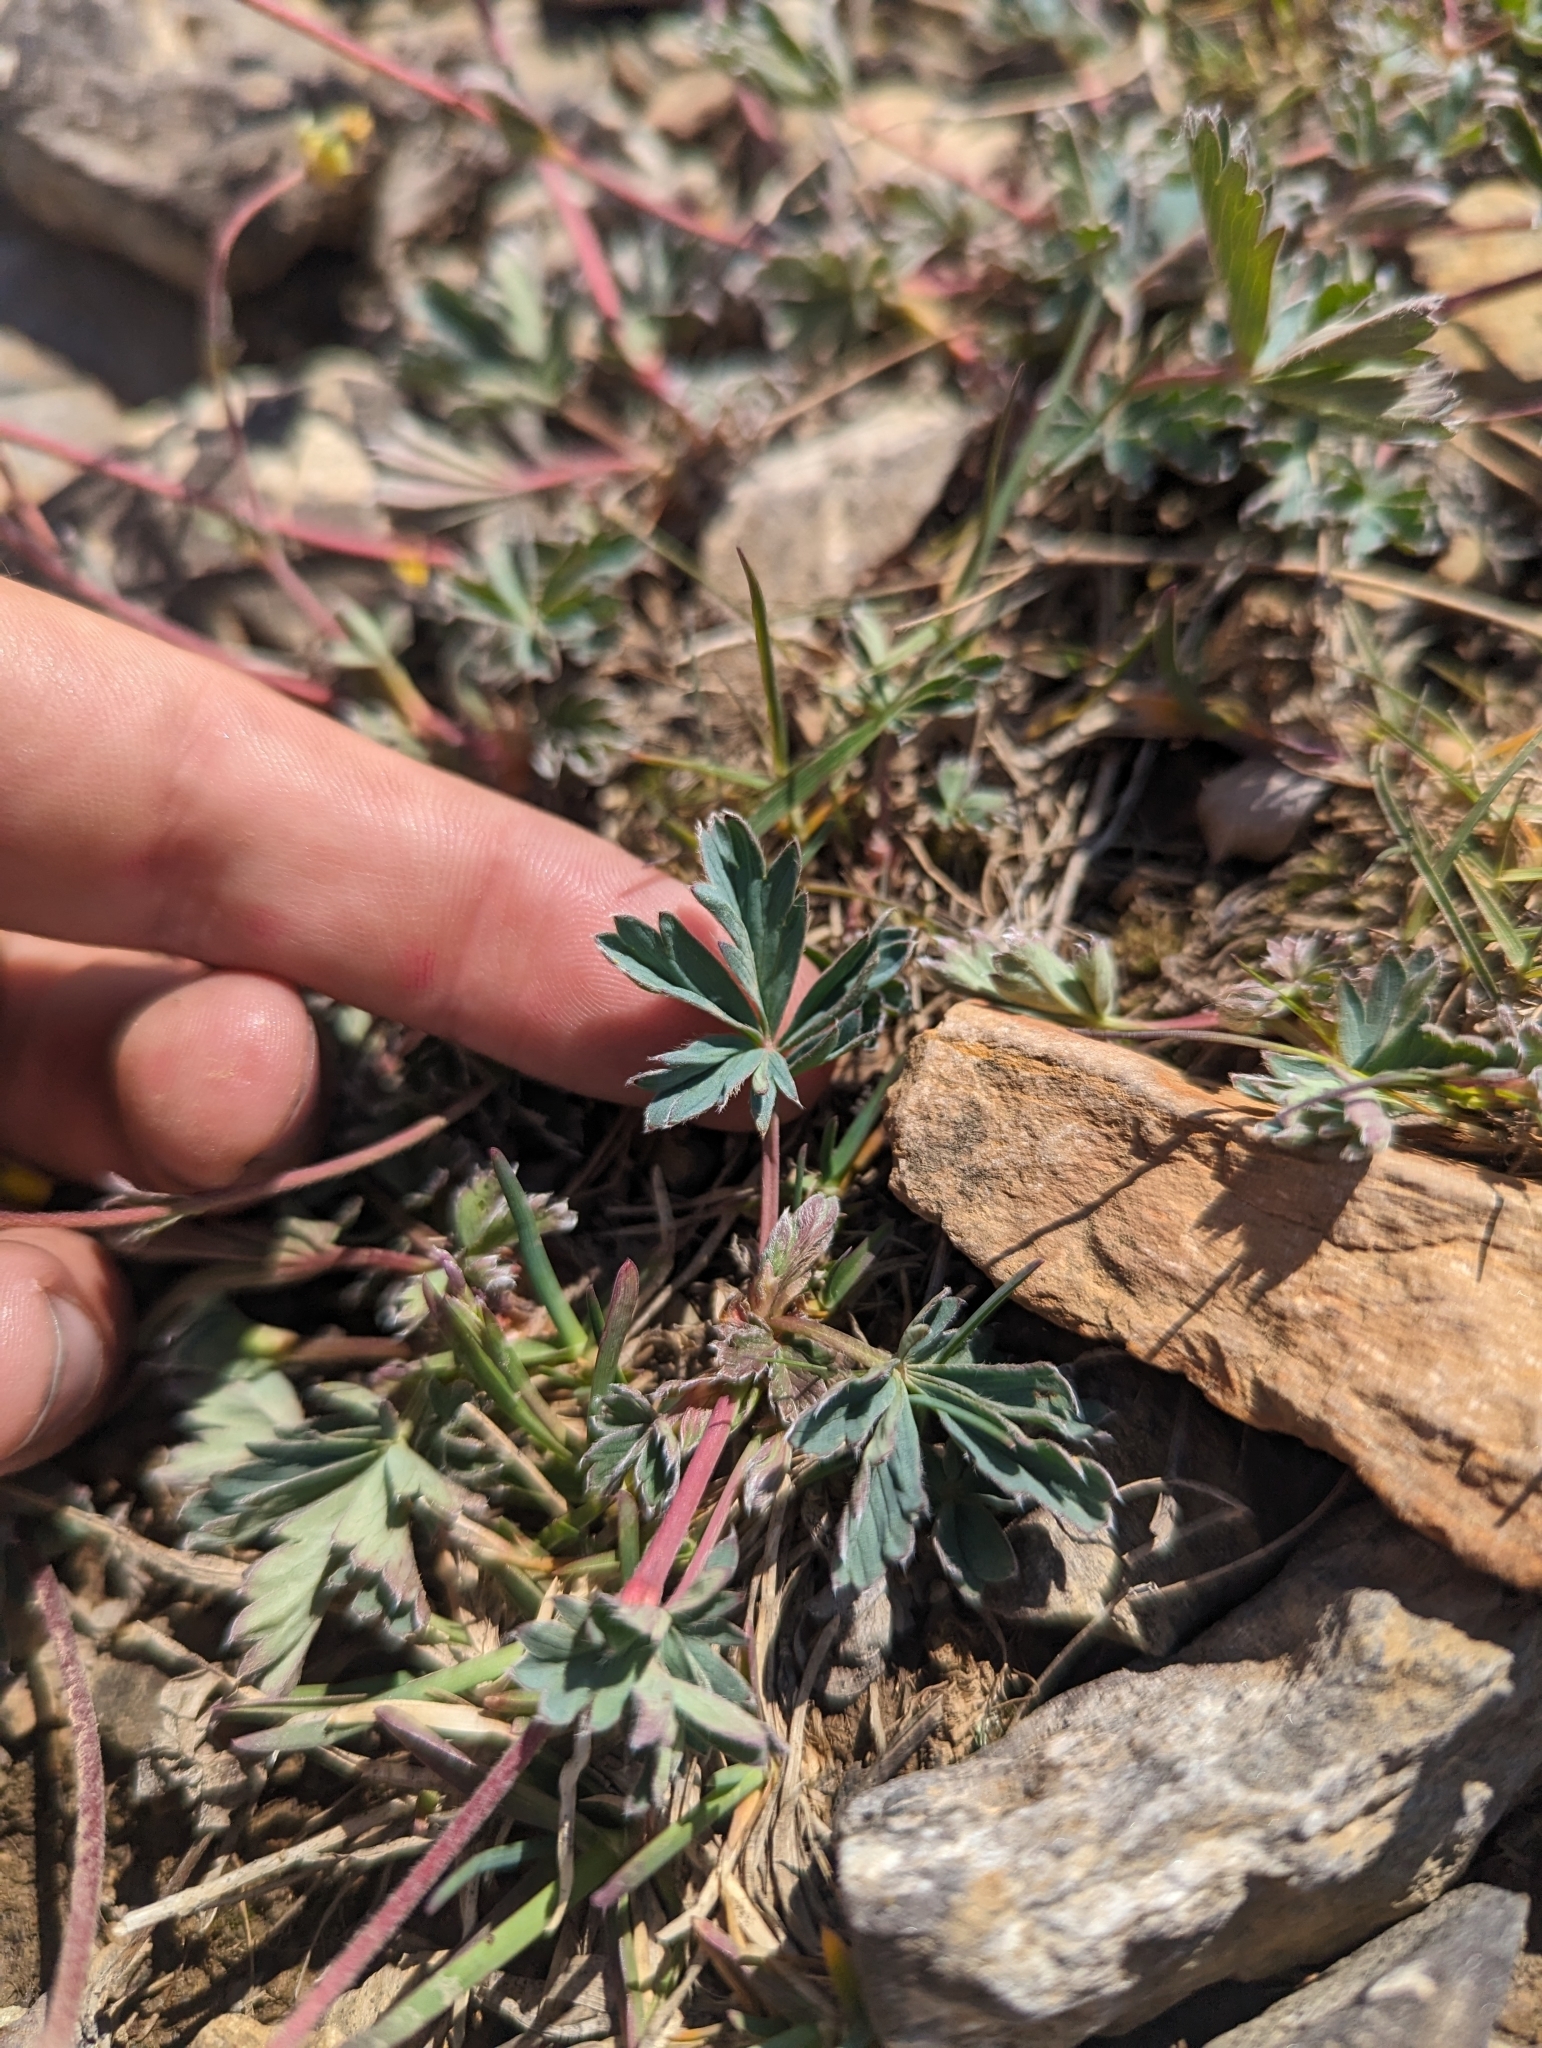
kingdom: Plantae
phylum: Tracheophyta
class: Magnoliopsida
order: Rosales
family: Rosaceae
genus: Potentilla
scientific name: Potentilla glaucophylla
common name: Blue-leaved cinquefoil
